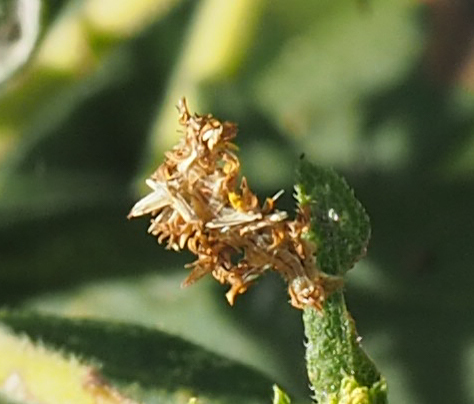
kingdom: Animalia
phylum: Arthropoda
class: Insecta
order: Lepidoptera
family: Geometridae
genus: Synchlora
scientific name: Synchlora aerata
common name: Wavy-lined emerald
